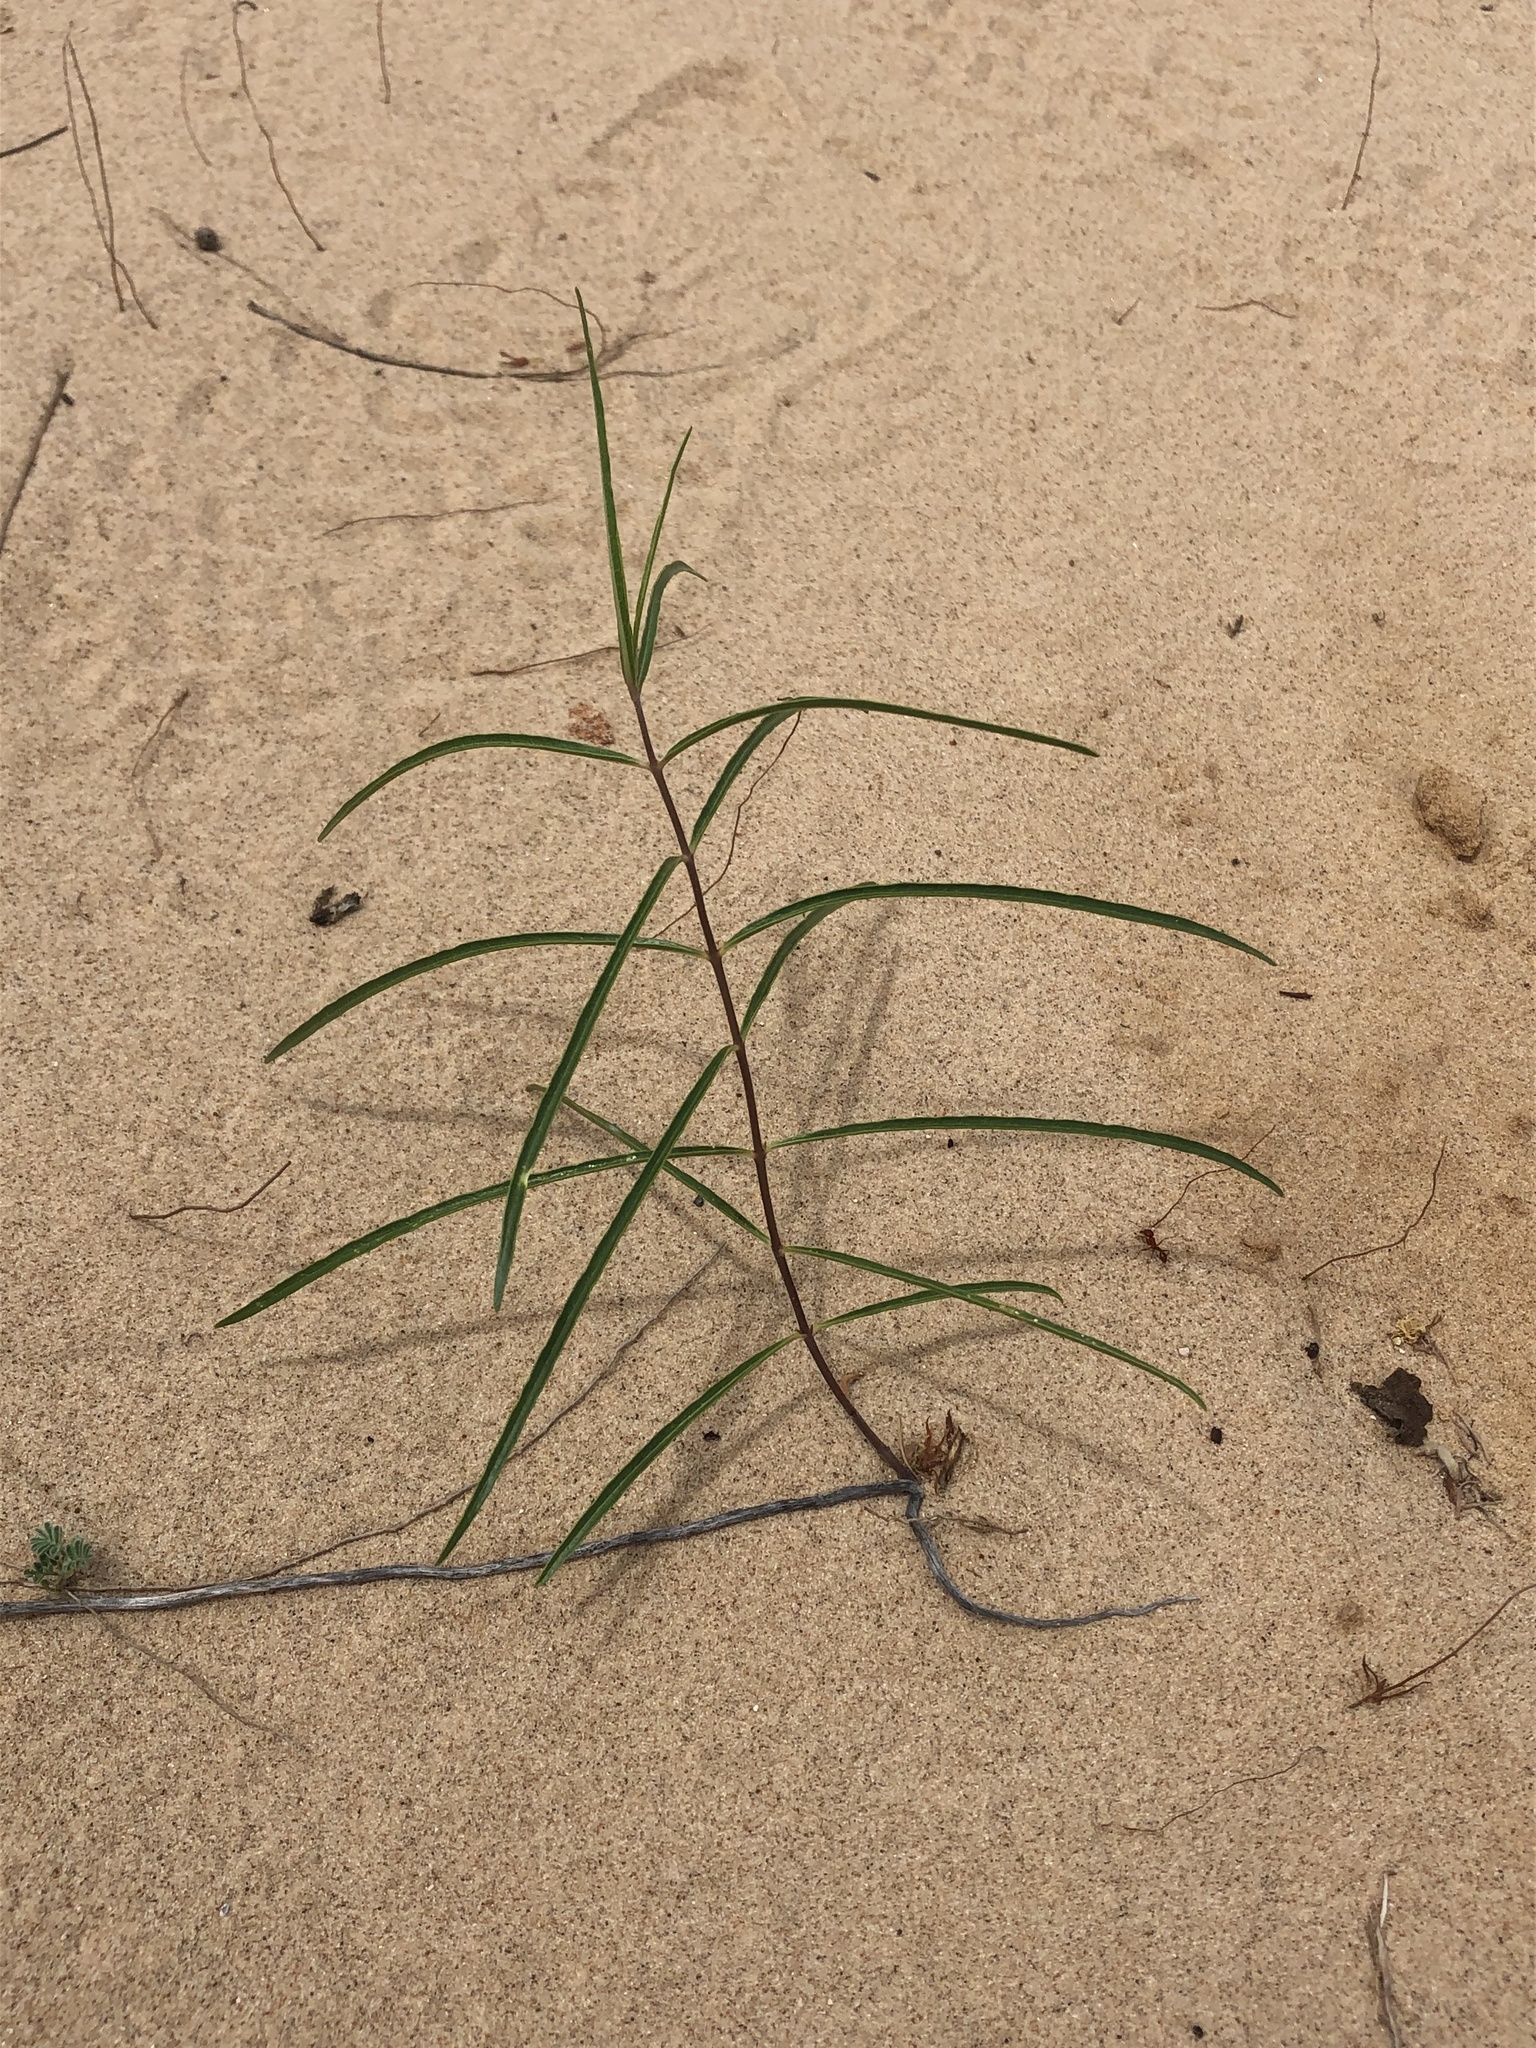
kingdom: Plantae
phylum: Tracheophyta
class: Magnoliopsida
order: Gentianales
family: Apocynaceae
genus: Asclepias
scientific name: Asclepias arenaria
